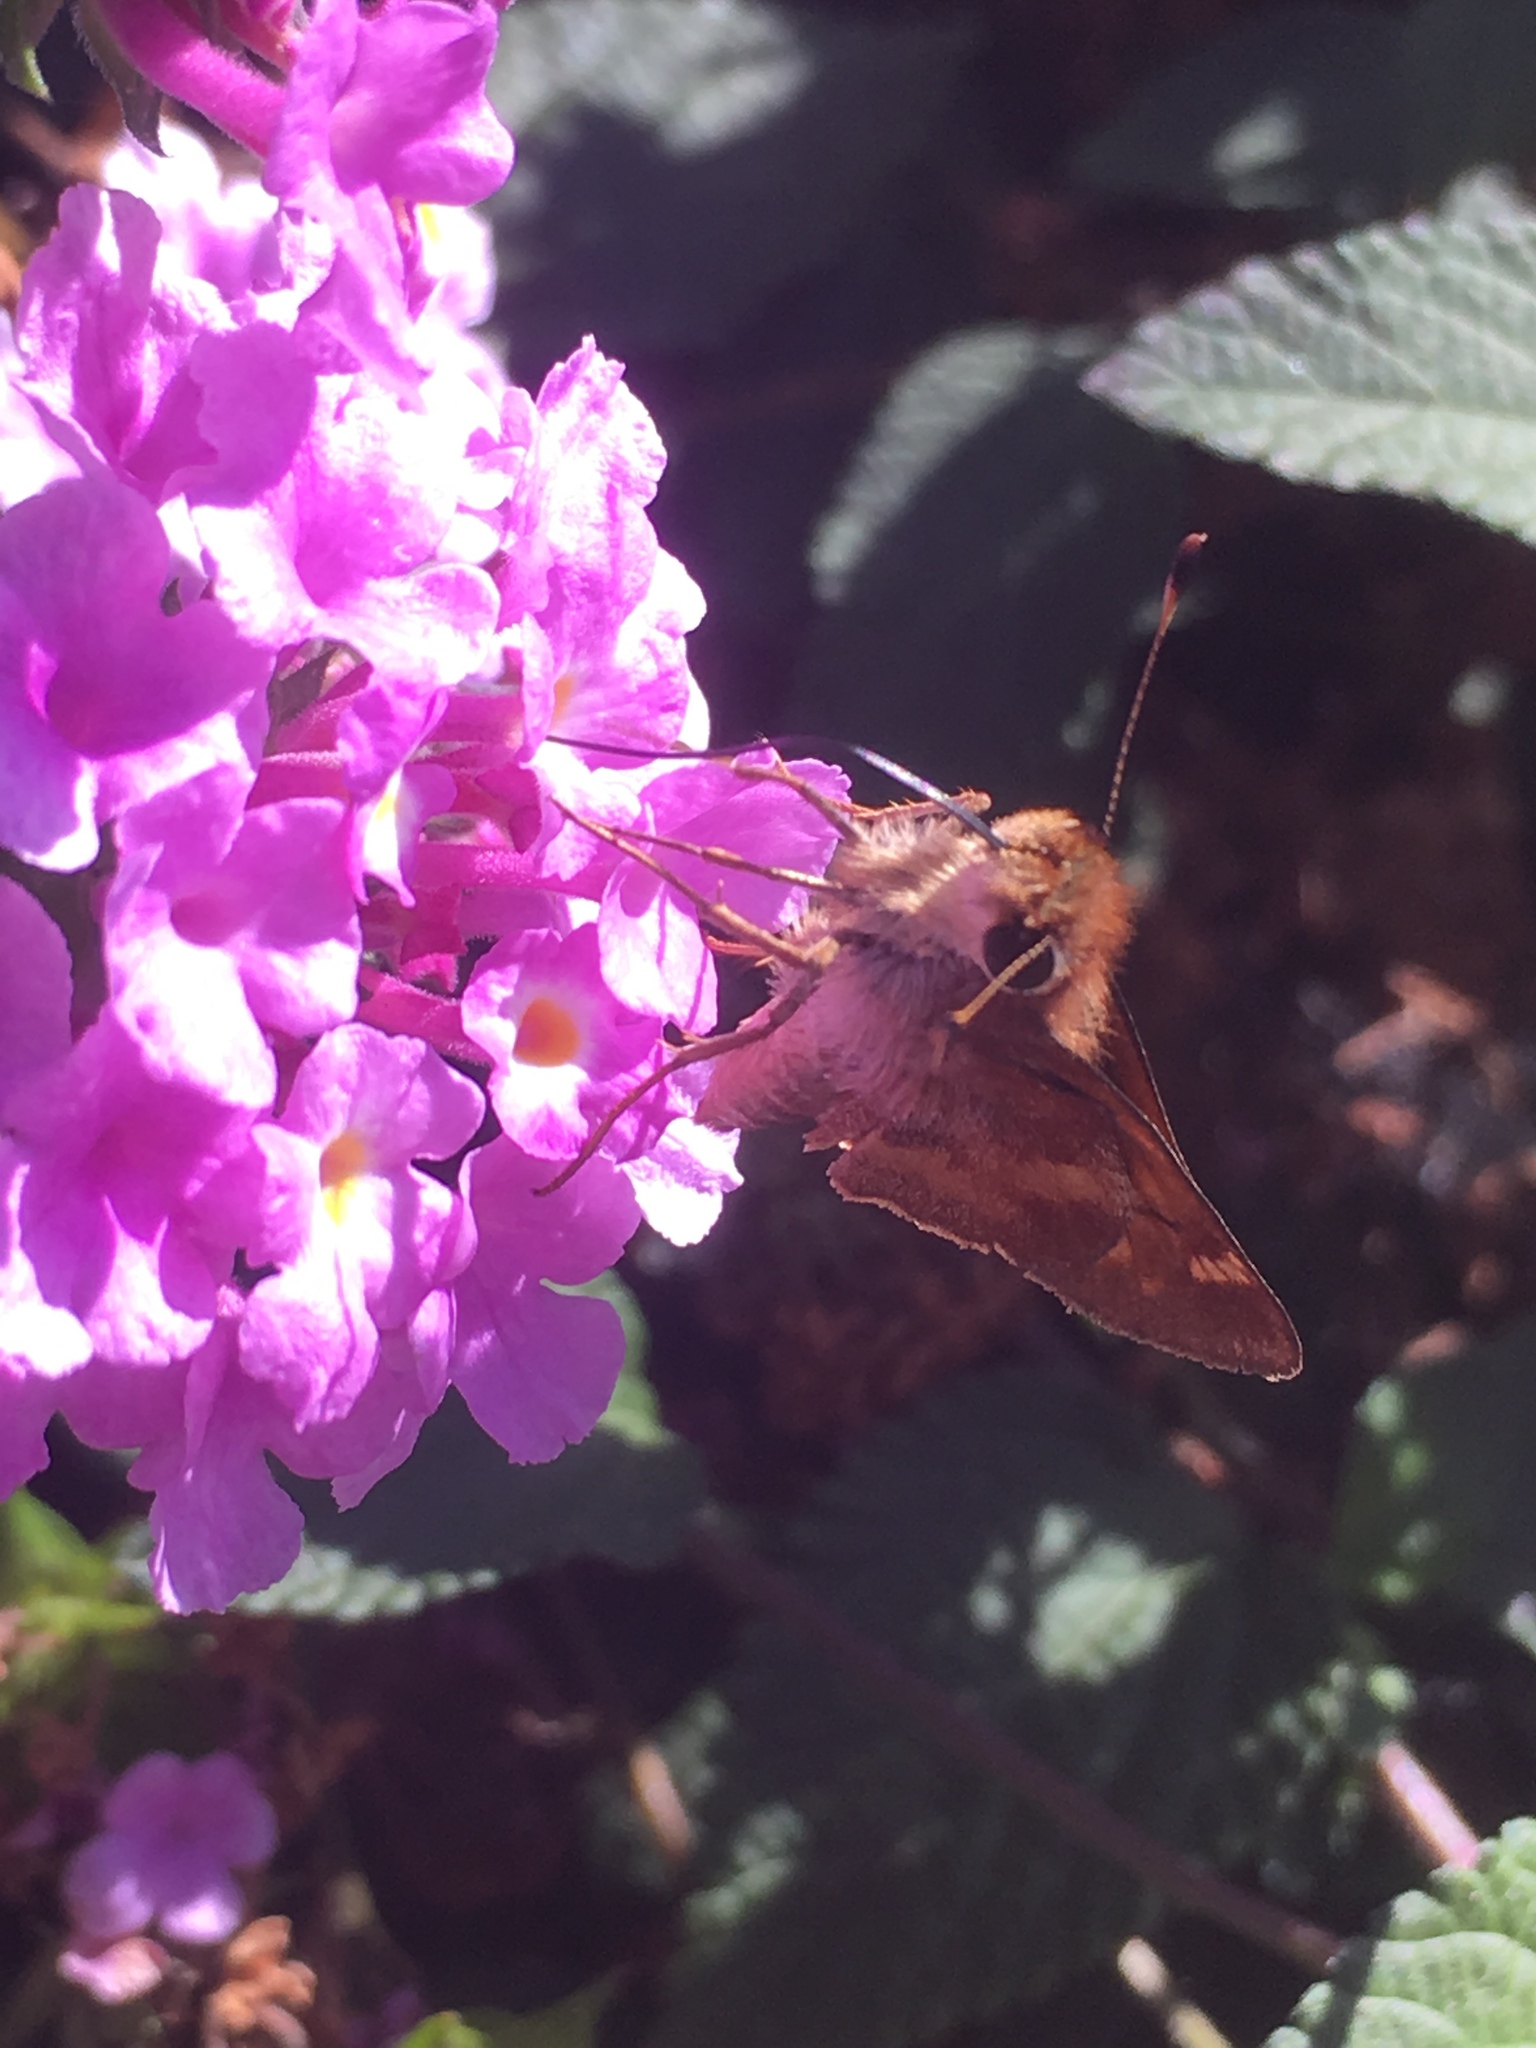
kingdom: Animalia
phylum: Arthropoda
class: Insecta
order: Lepidoptera
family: Hesperiidae
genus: Lon
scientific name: Lon melane
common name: Umber skipper
